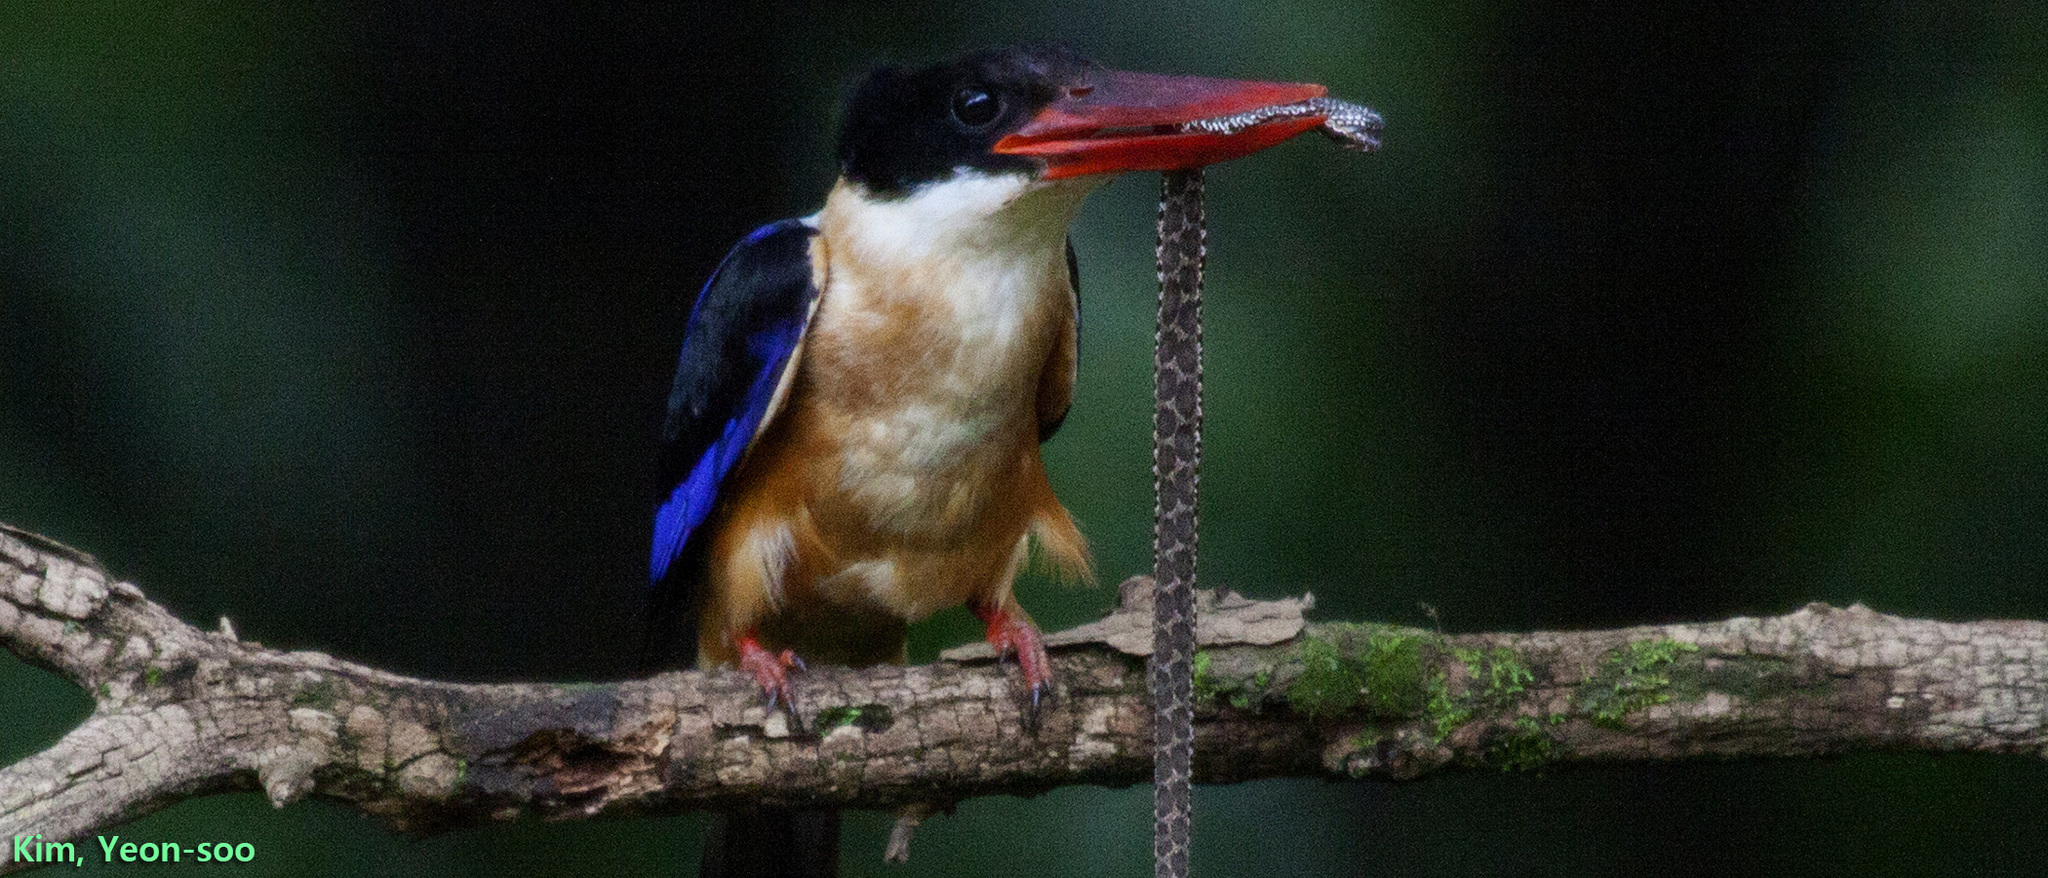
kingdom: Animalia
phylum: Chordata
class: Aves
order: Coraciiformes
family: Alcedinidae
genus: Halcyon
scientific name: Halcyon pileata
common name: Black-capped kingfisher
